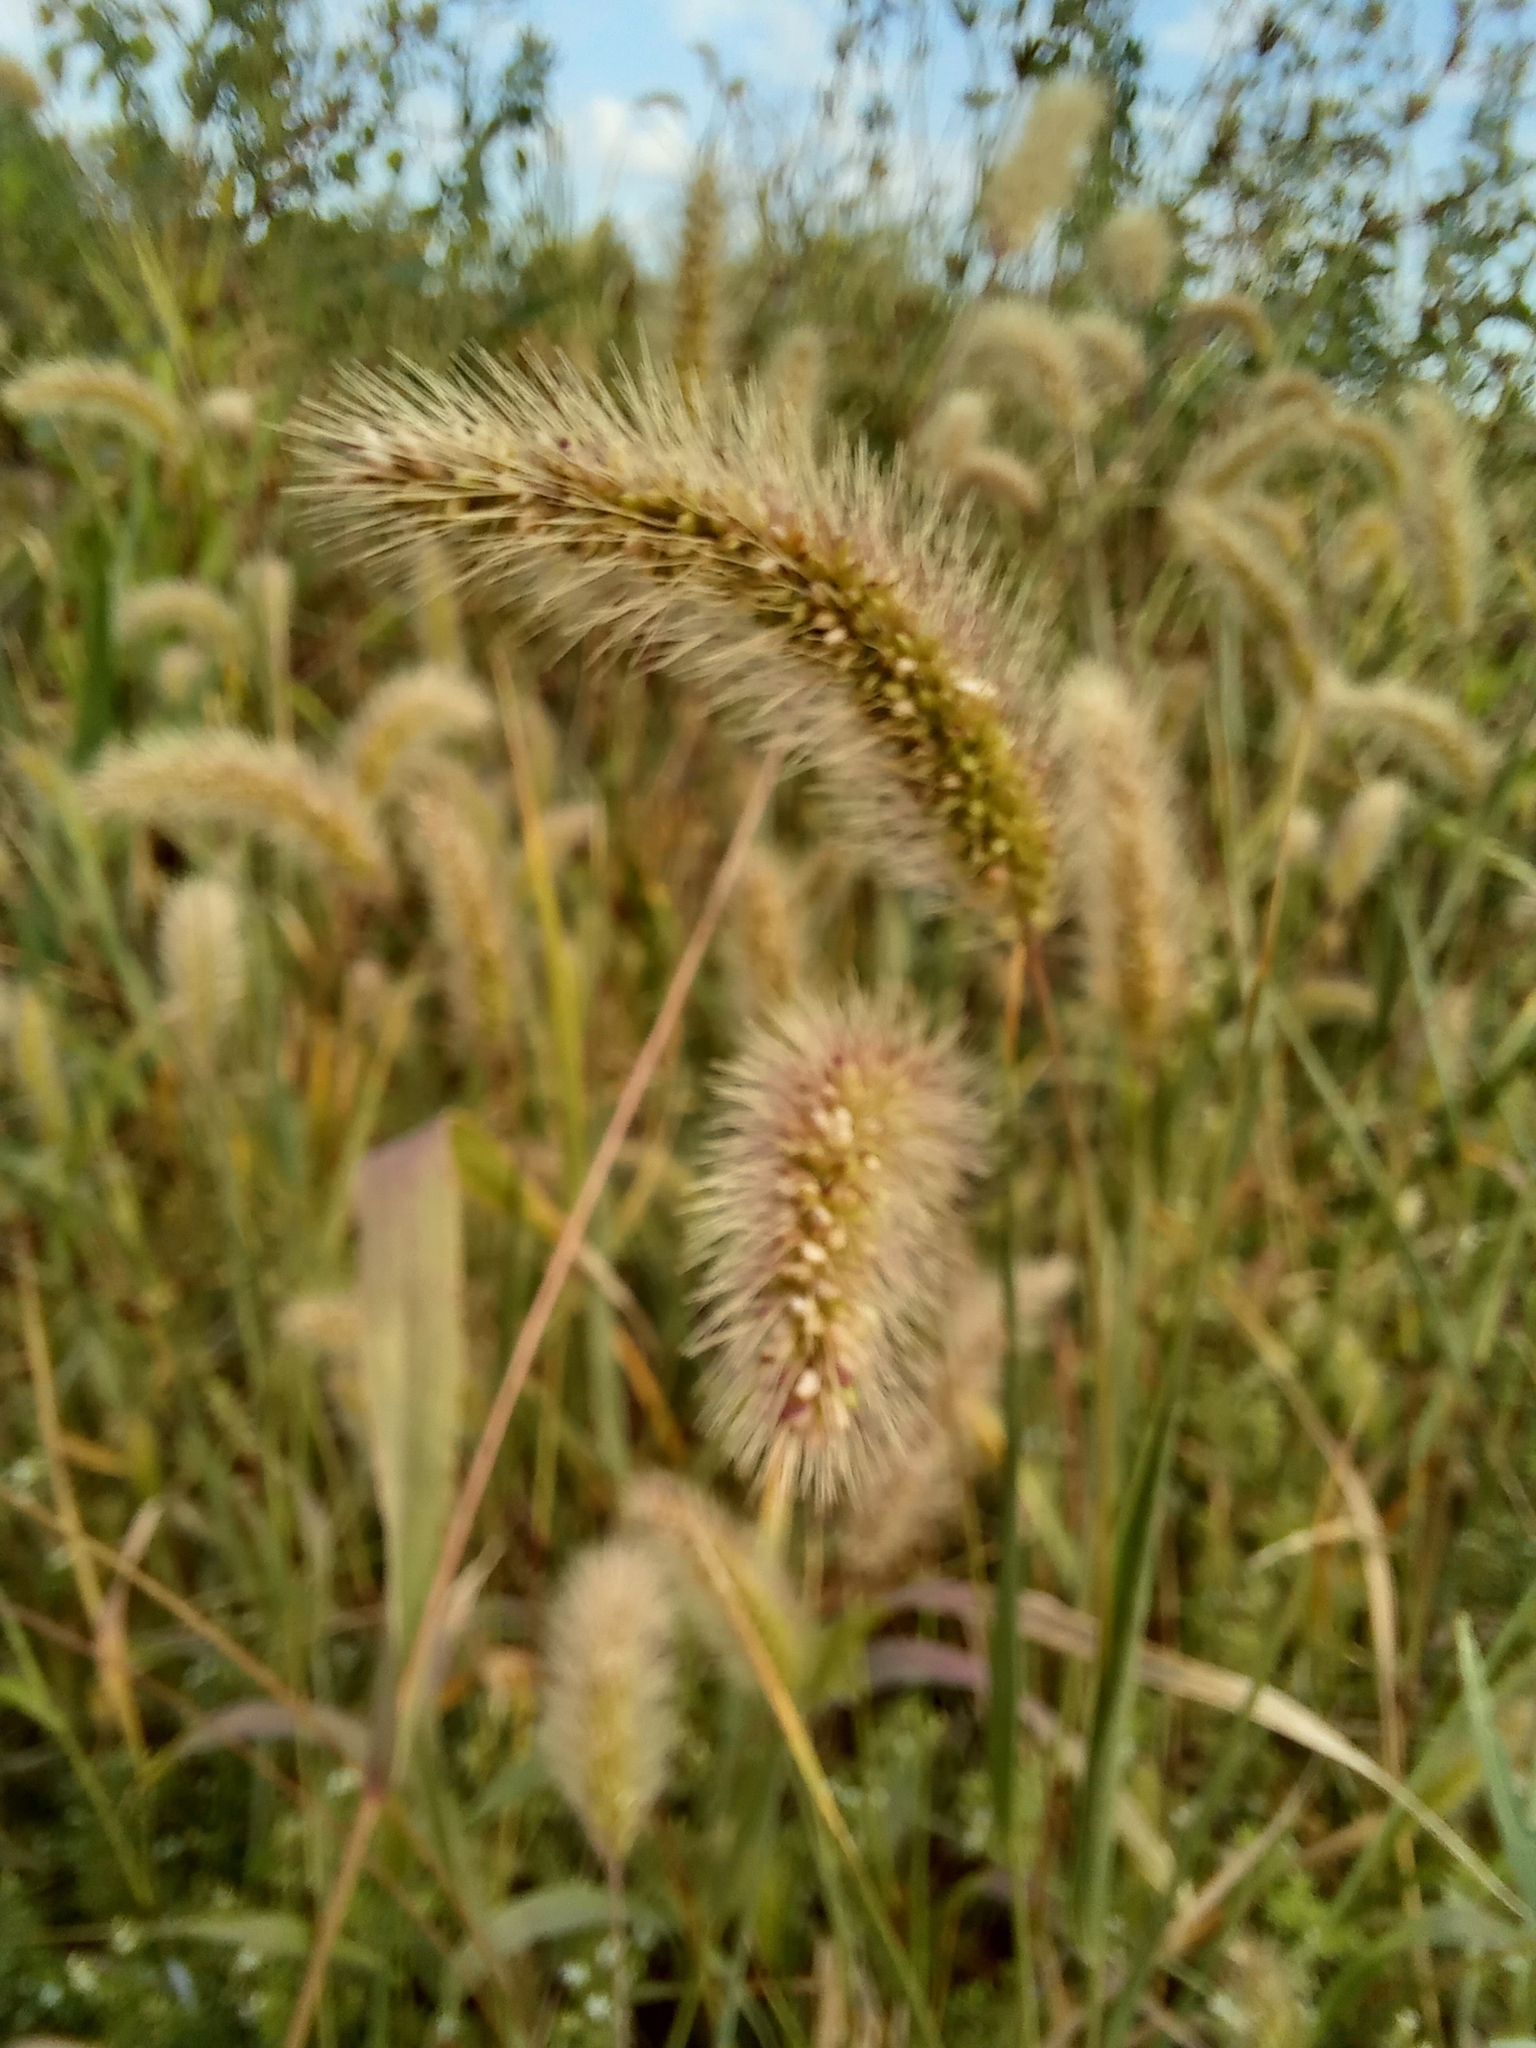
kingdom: Plantae
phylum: Tracheophyta
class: Liliopsida
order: Poales
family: Poaceae
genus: Setaria
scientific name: Setaria viridis
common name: Green bristlegrass
